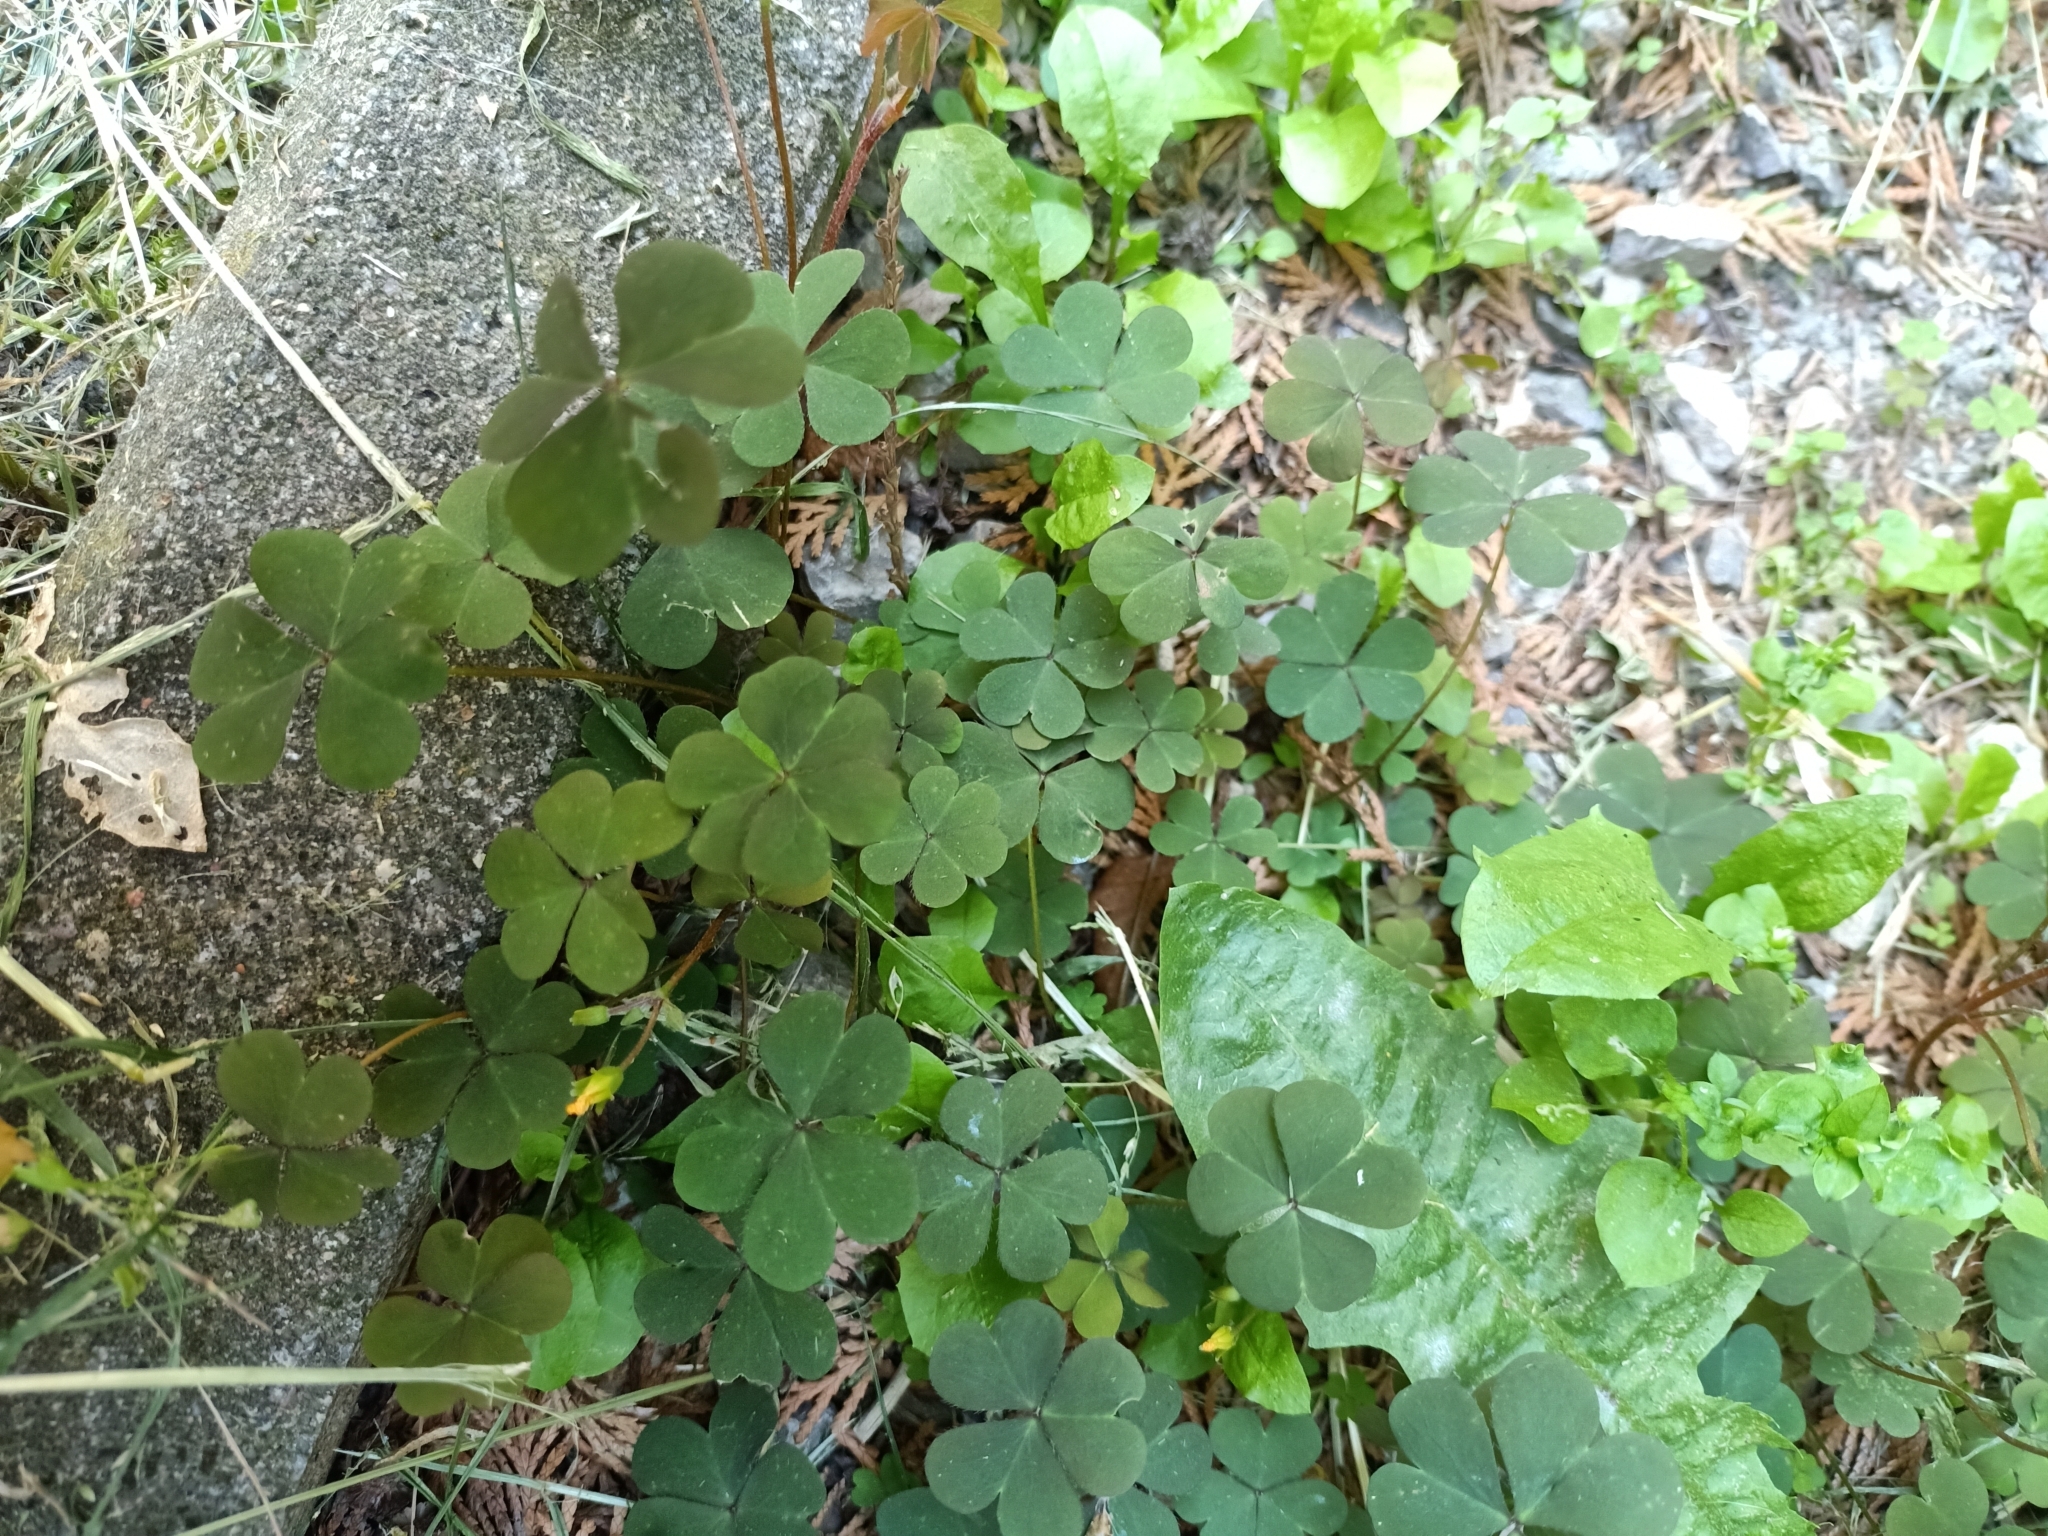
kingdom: Plantae
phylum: Tracheophyta
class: Magnoliopsida
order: Oxalidales
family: Oxalidaceae
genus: Oxalis
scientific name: Oxalis corniculata
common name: Procumbent yellow-sorrel
